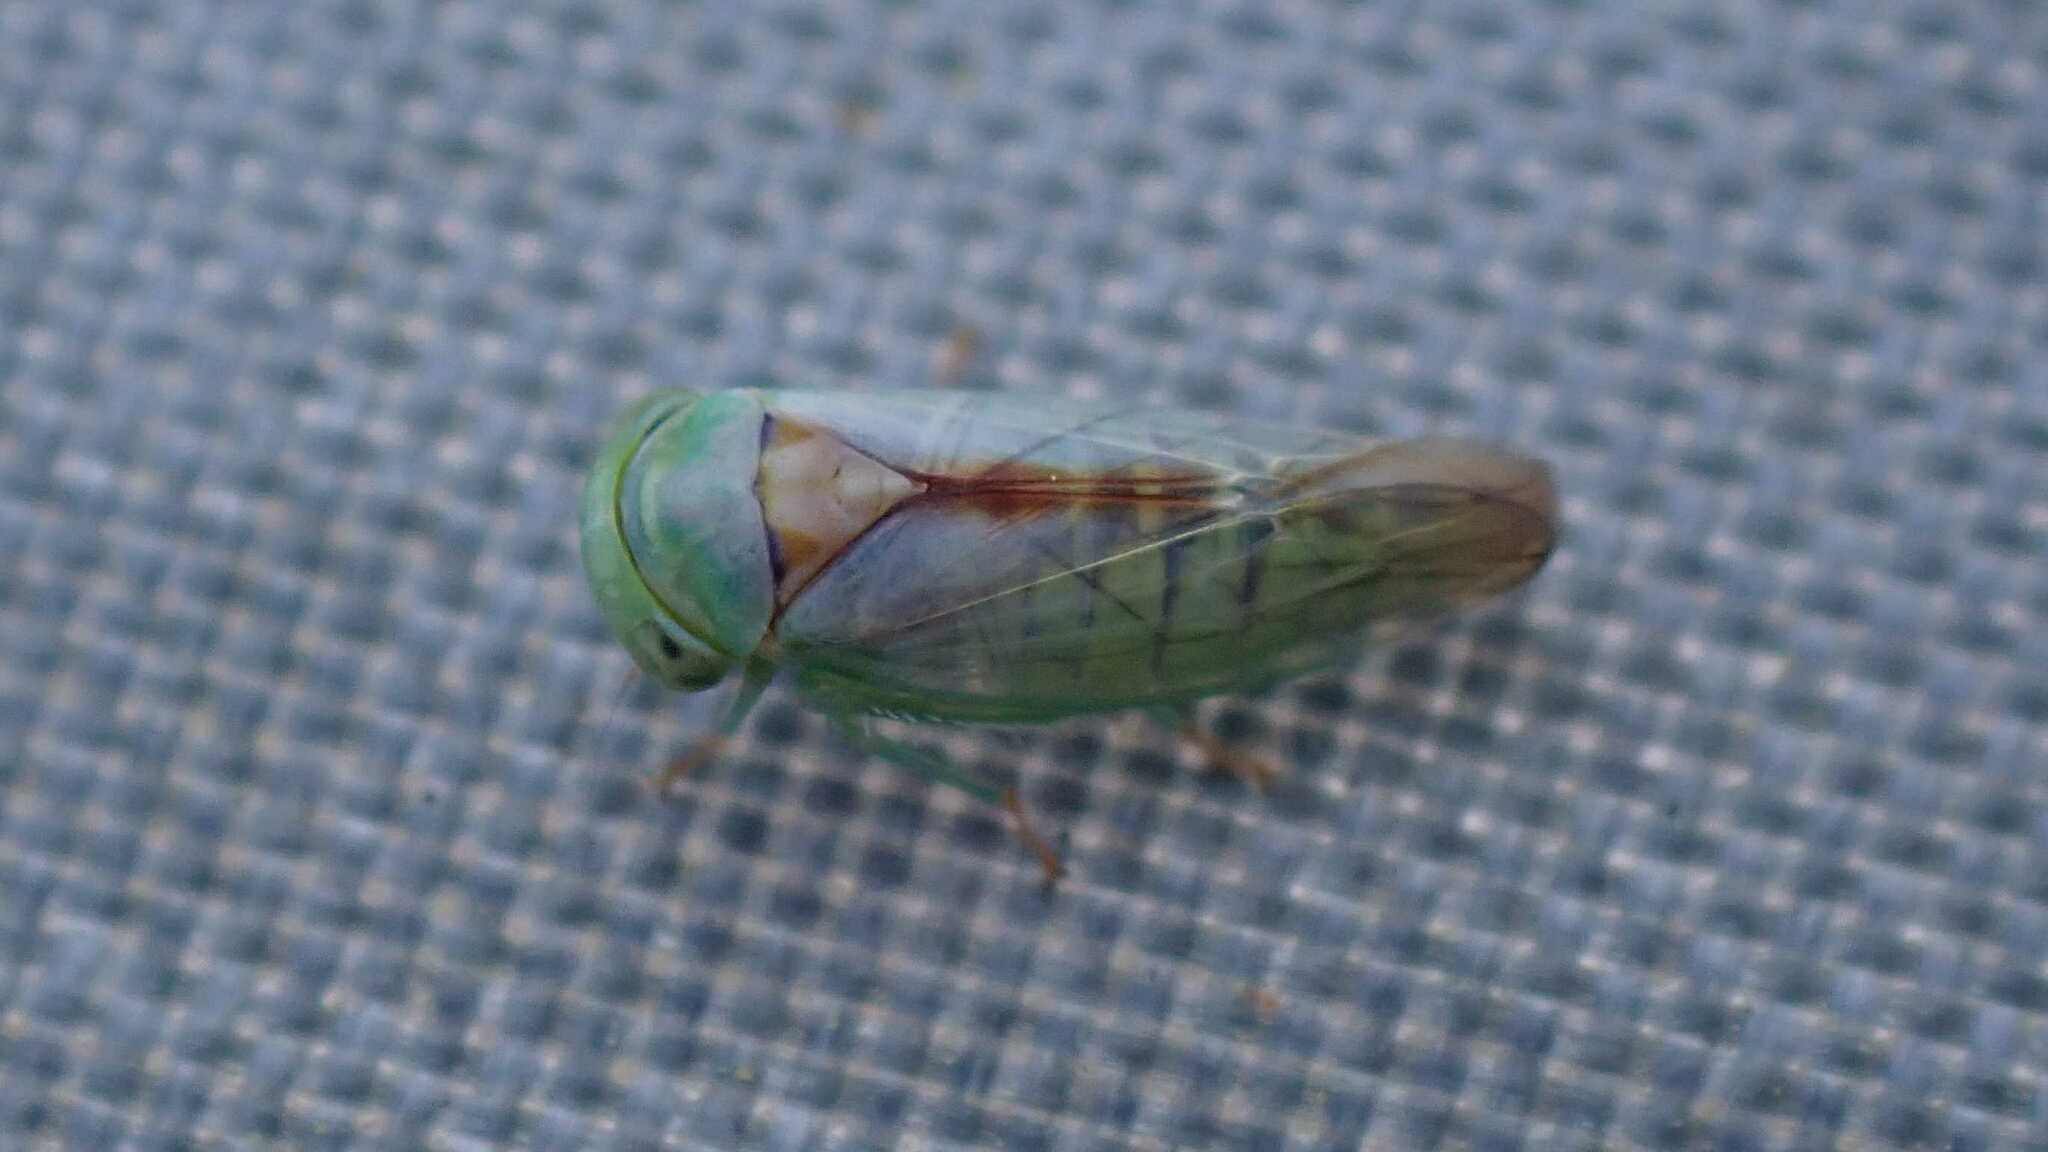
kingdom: Animalia
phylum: Arthropoda
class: Insecta
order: Hemiptera
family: Cicadellidae
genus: Viridicerus
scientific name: Viridicerus ustulatus
